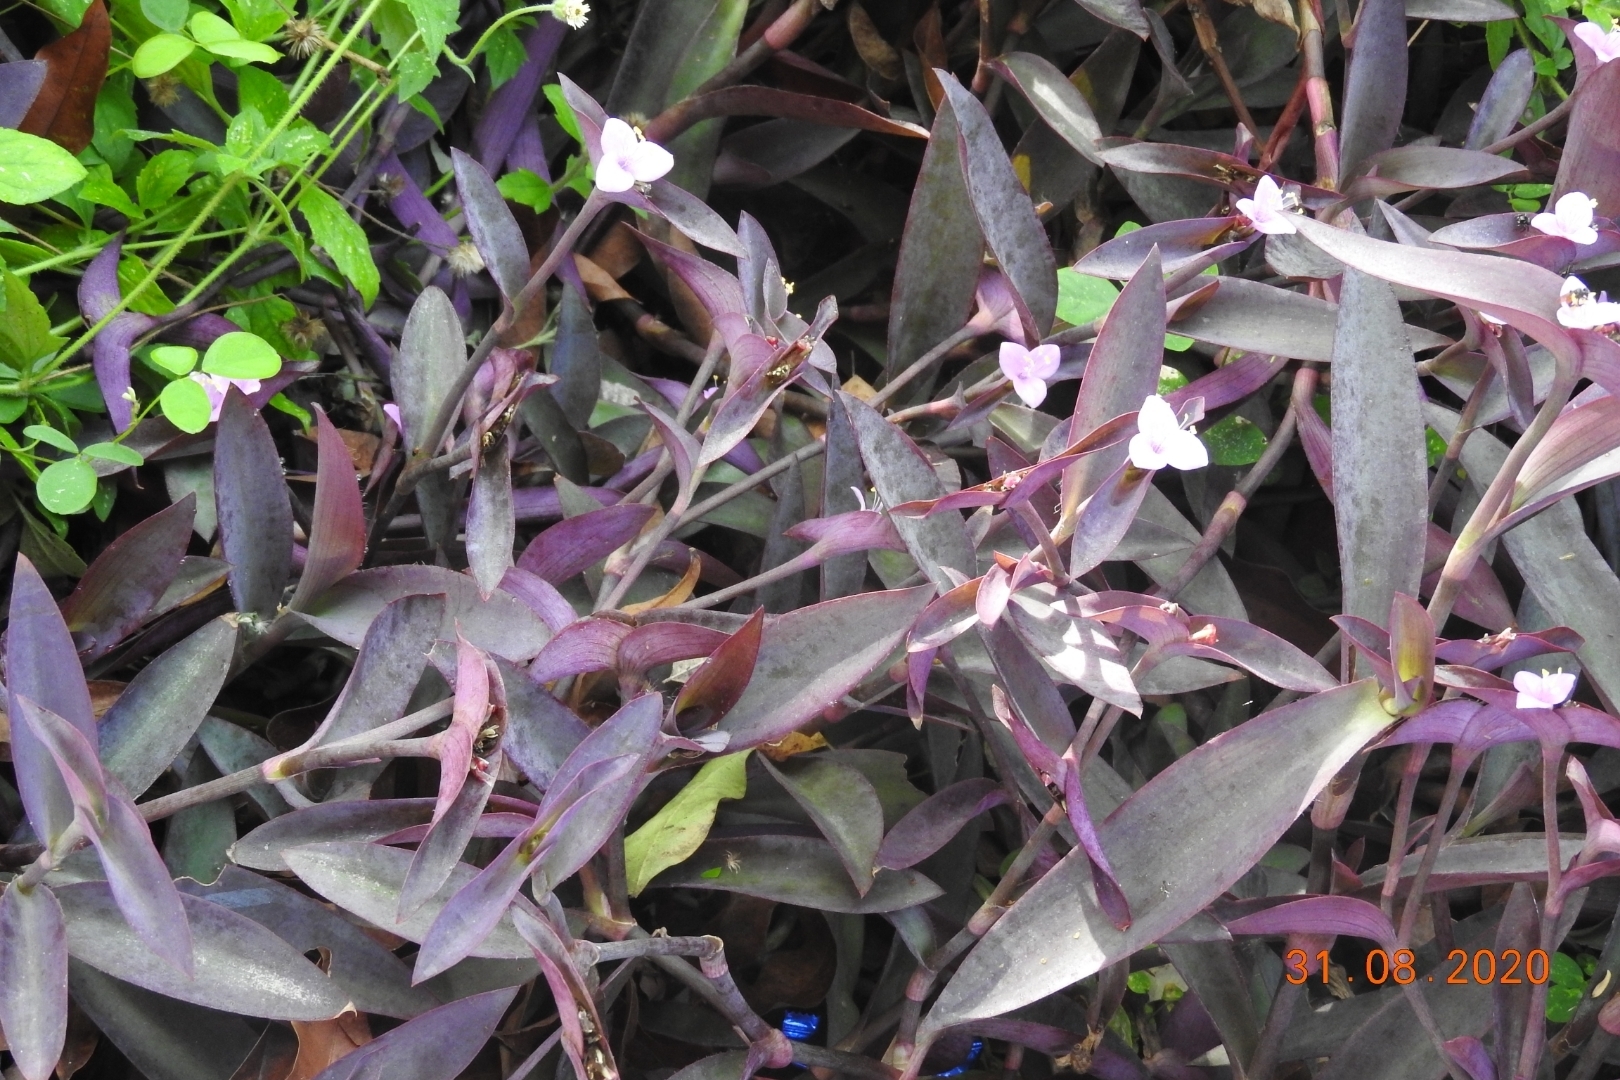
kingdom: Plantae
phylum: Tracheophyta
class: Liliopsida
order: Commelinales
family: Commelinaceae
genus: Tradescantia
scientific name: Tradescantia pallida
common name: Purpleheart
